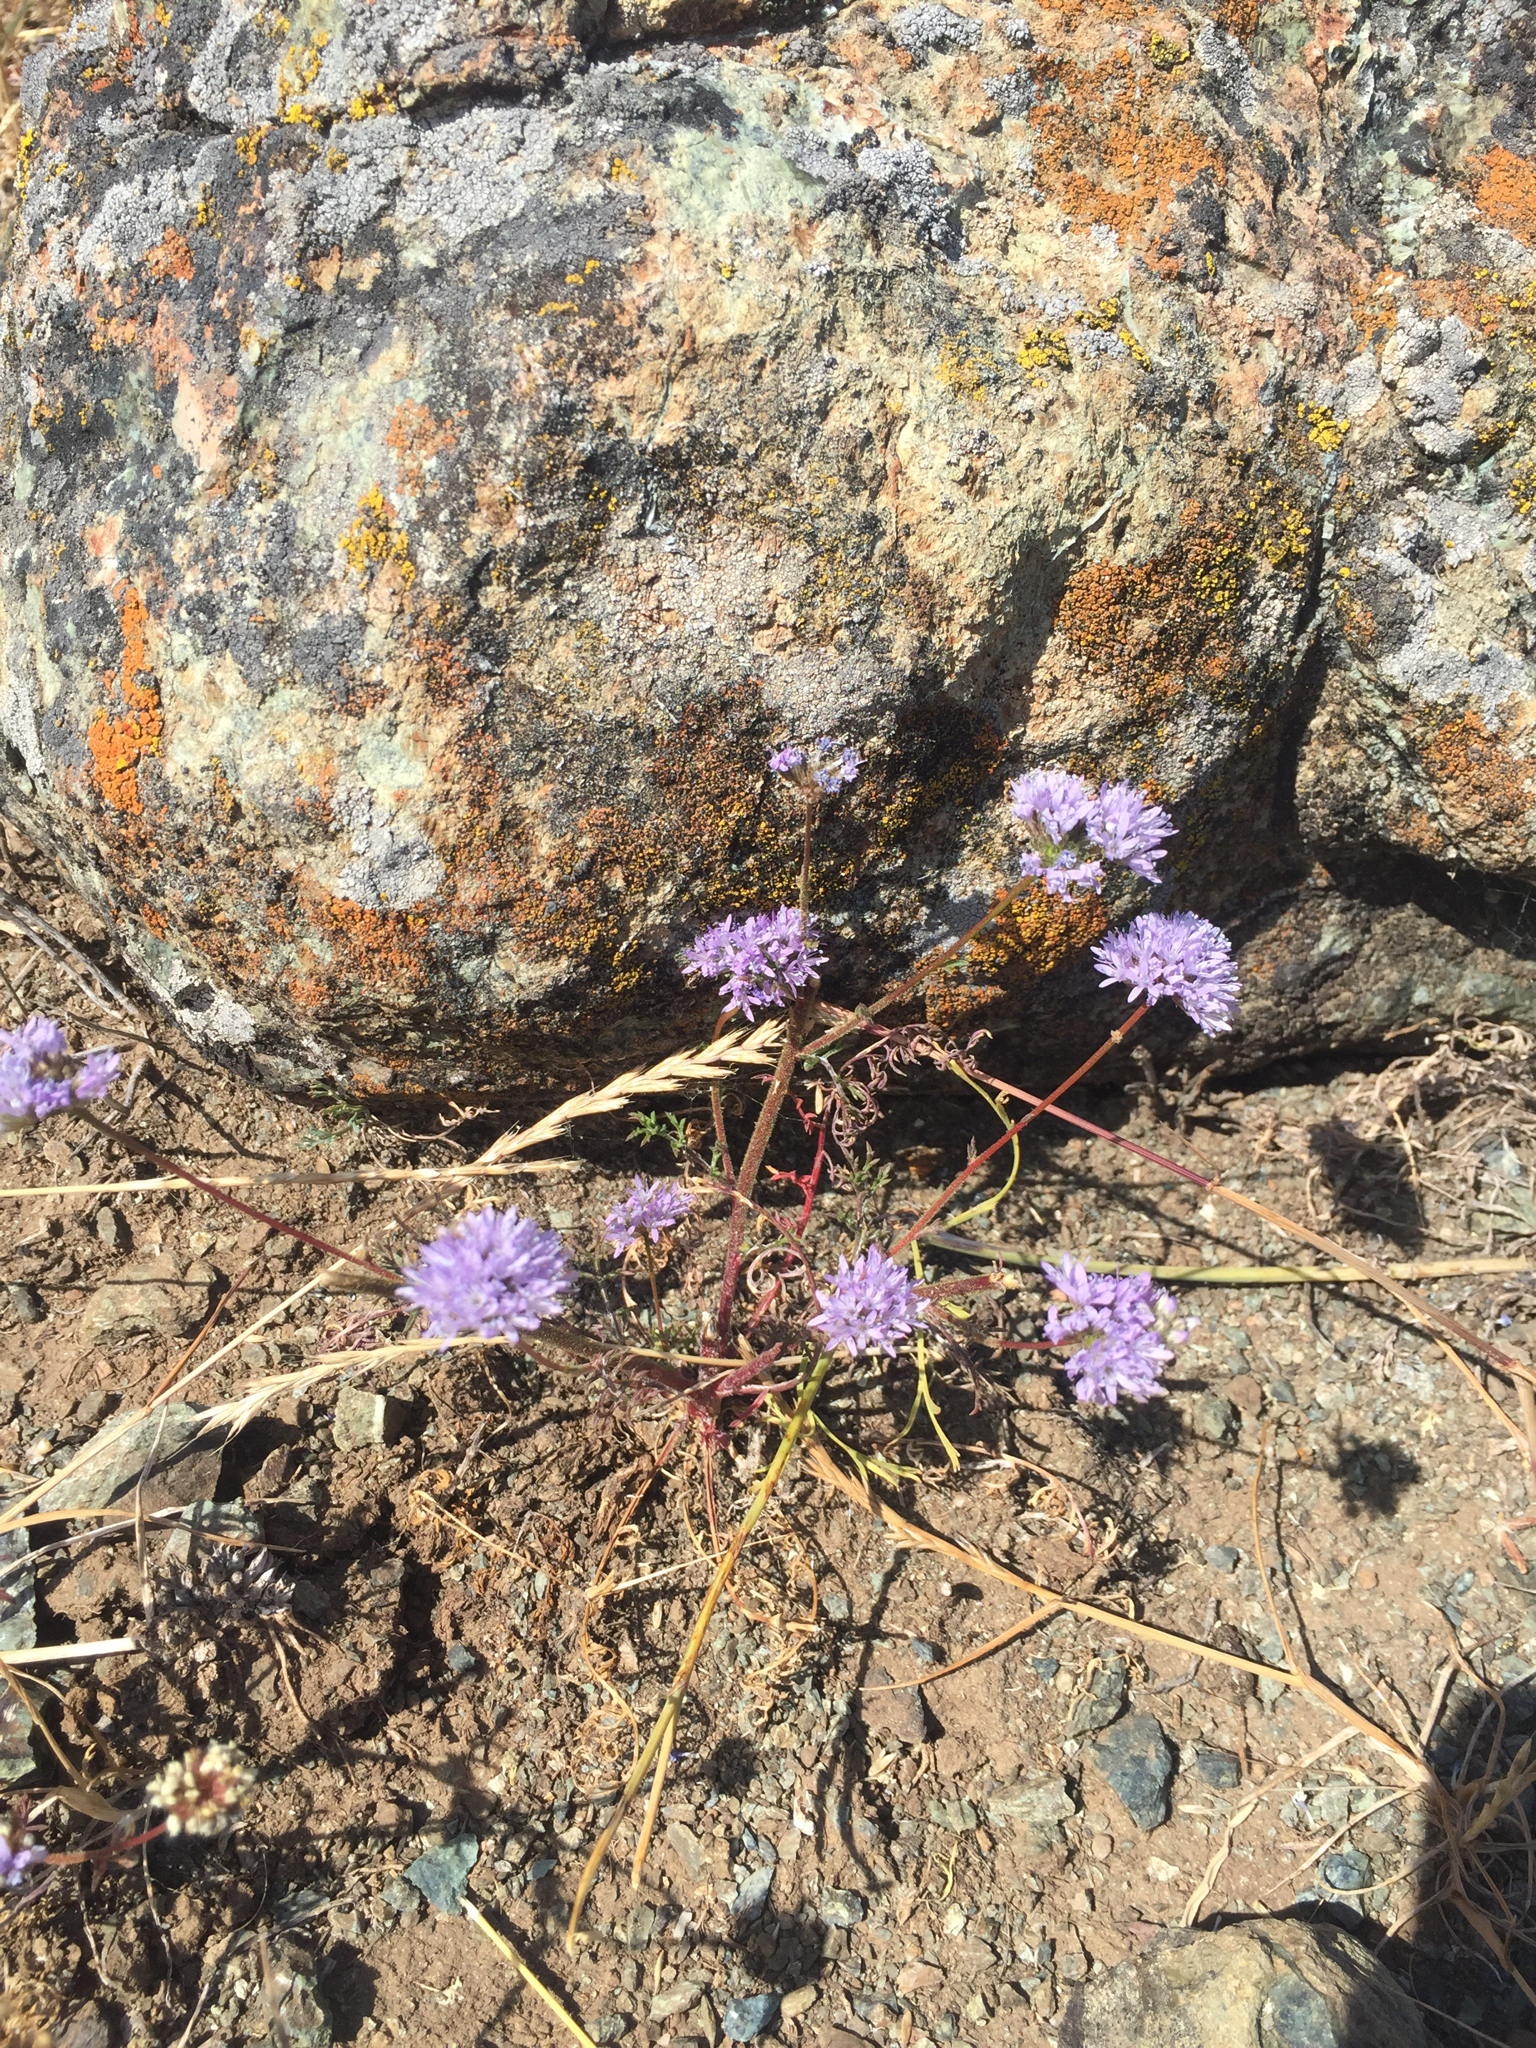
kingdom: Plantae
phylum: Tracheophyta
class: Magnoliopsida
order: Ericales
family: Polemoniaceae
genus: Gilia
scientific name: Gilia capitata
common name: Bluehead gilia
